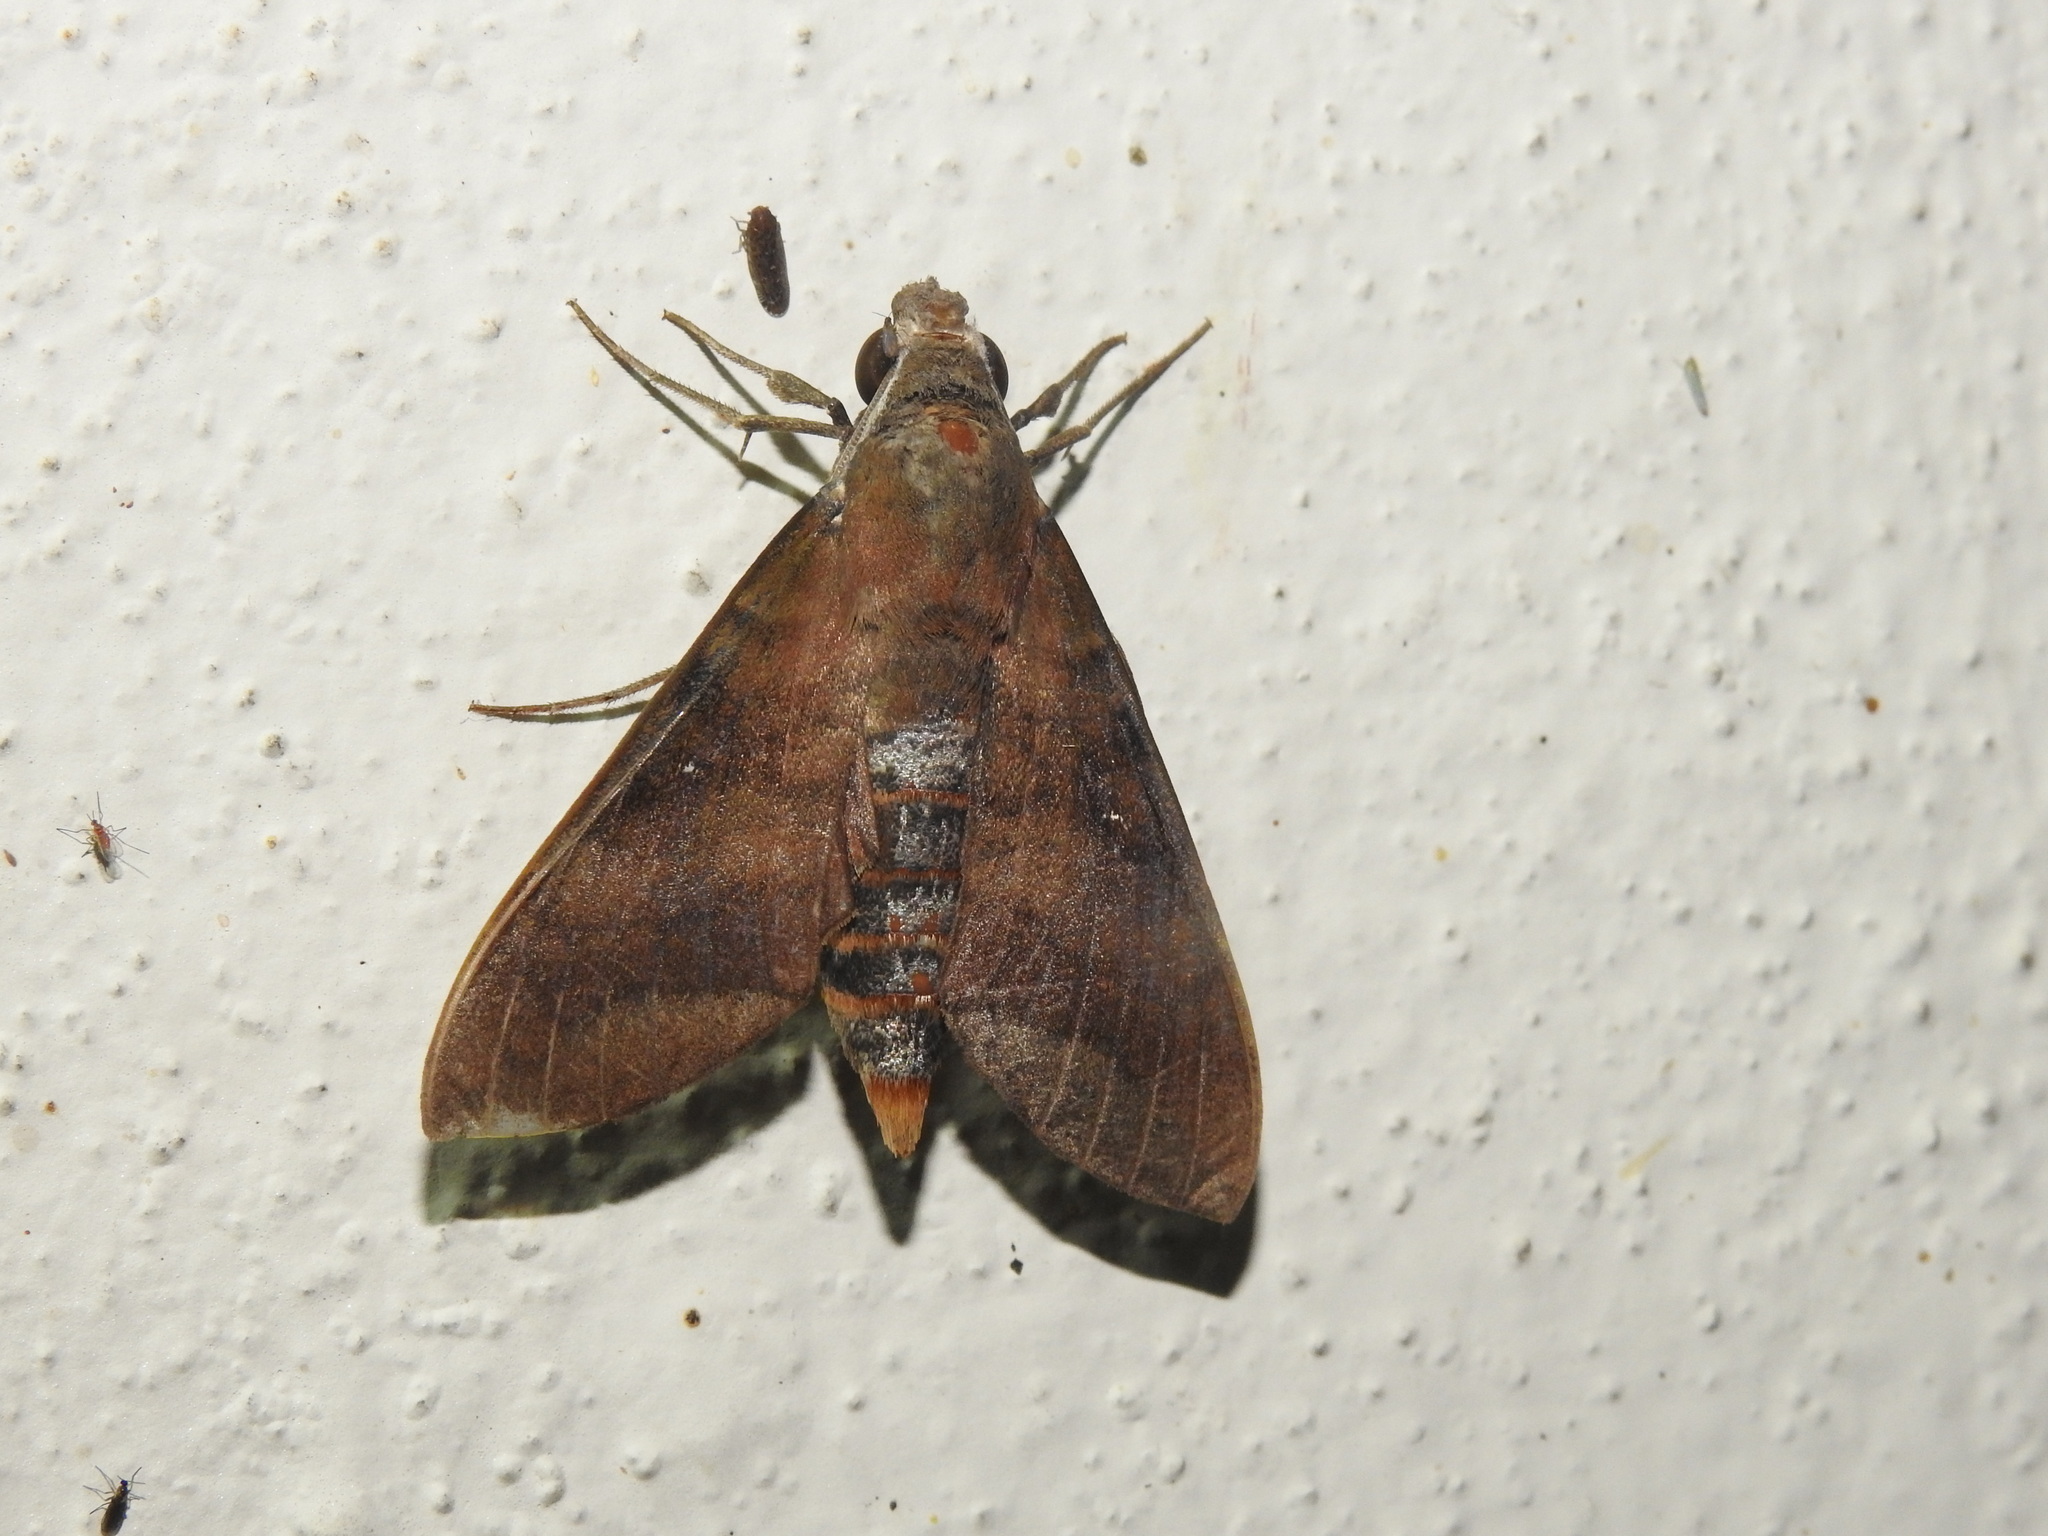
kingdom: Animalia
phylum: Arthropoda
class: Insecta
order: Lepidoptera
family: Sphingidae
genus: Nephele
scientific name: Nephele hespera
